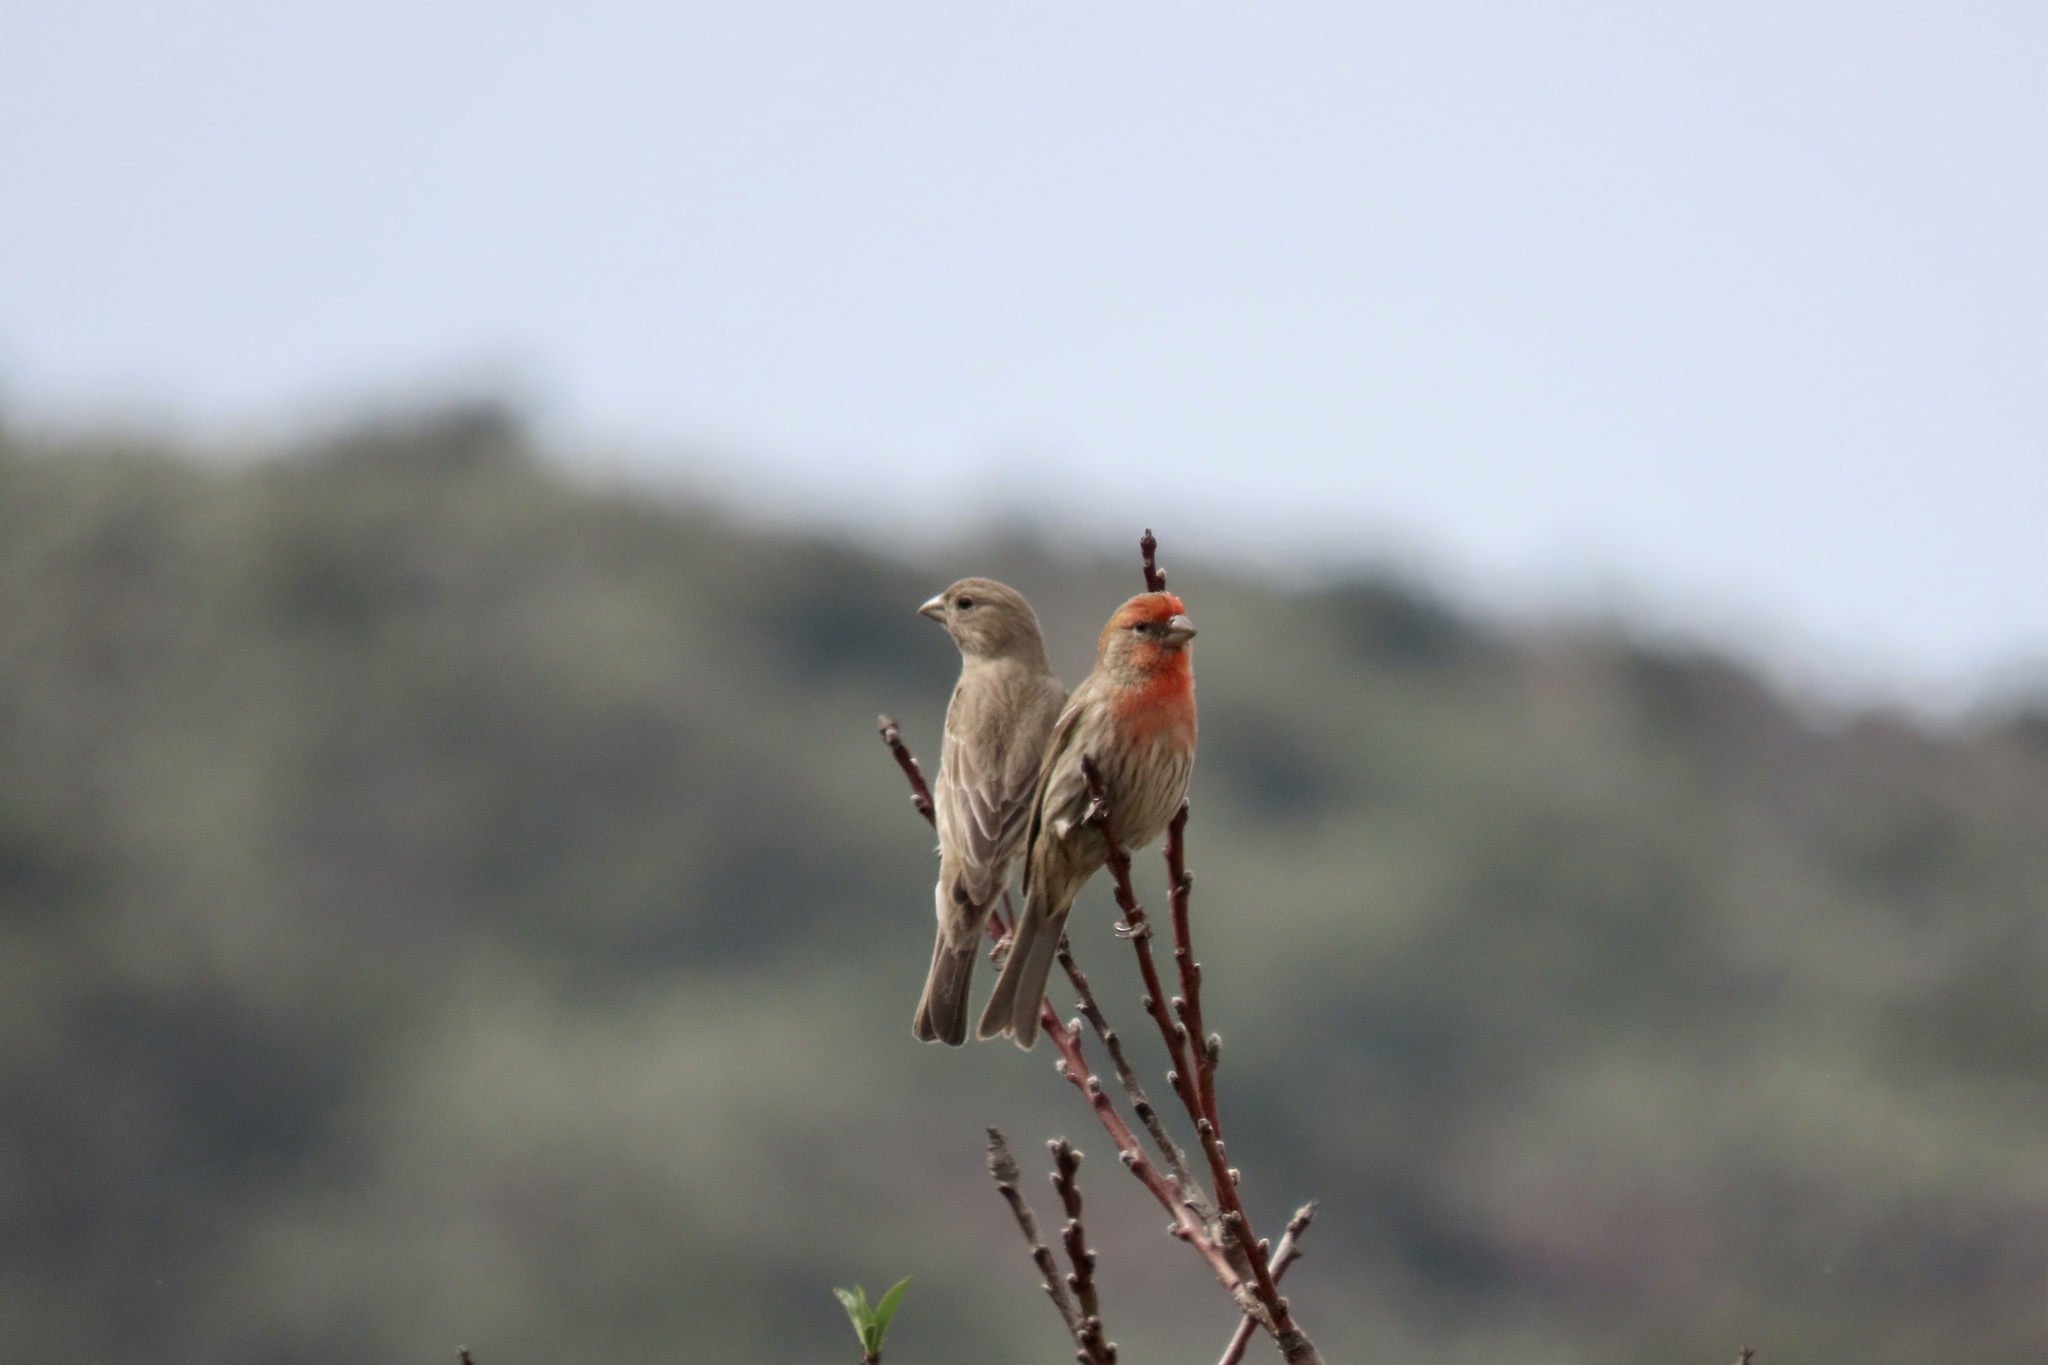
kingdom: Animalia
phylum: Chordata
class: Aves
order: Passeriformes
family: Fringillidae
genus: Haemorhous
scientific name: Haemorhous mexicanus
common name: House finch
